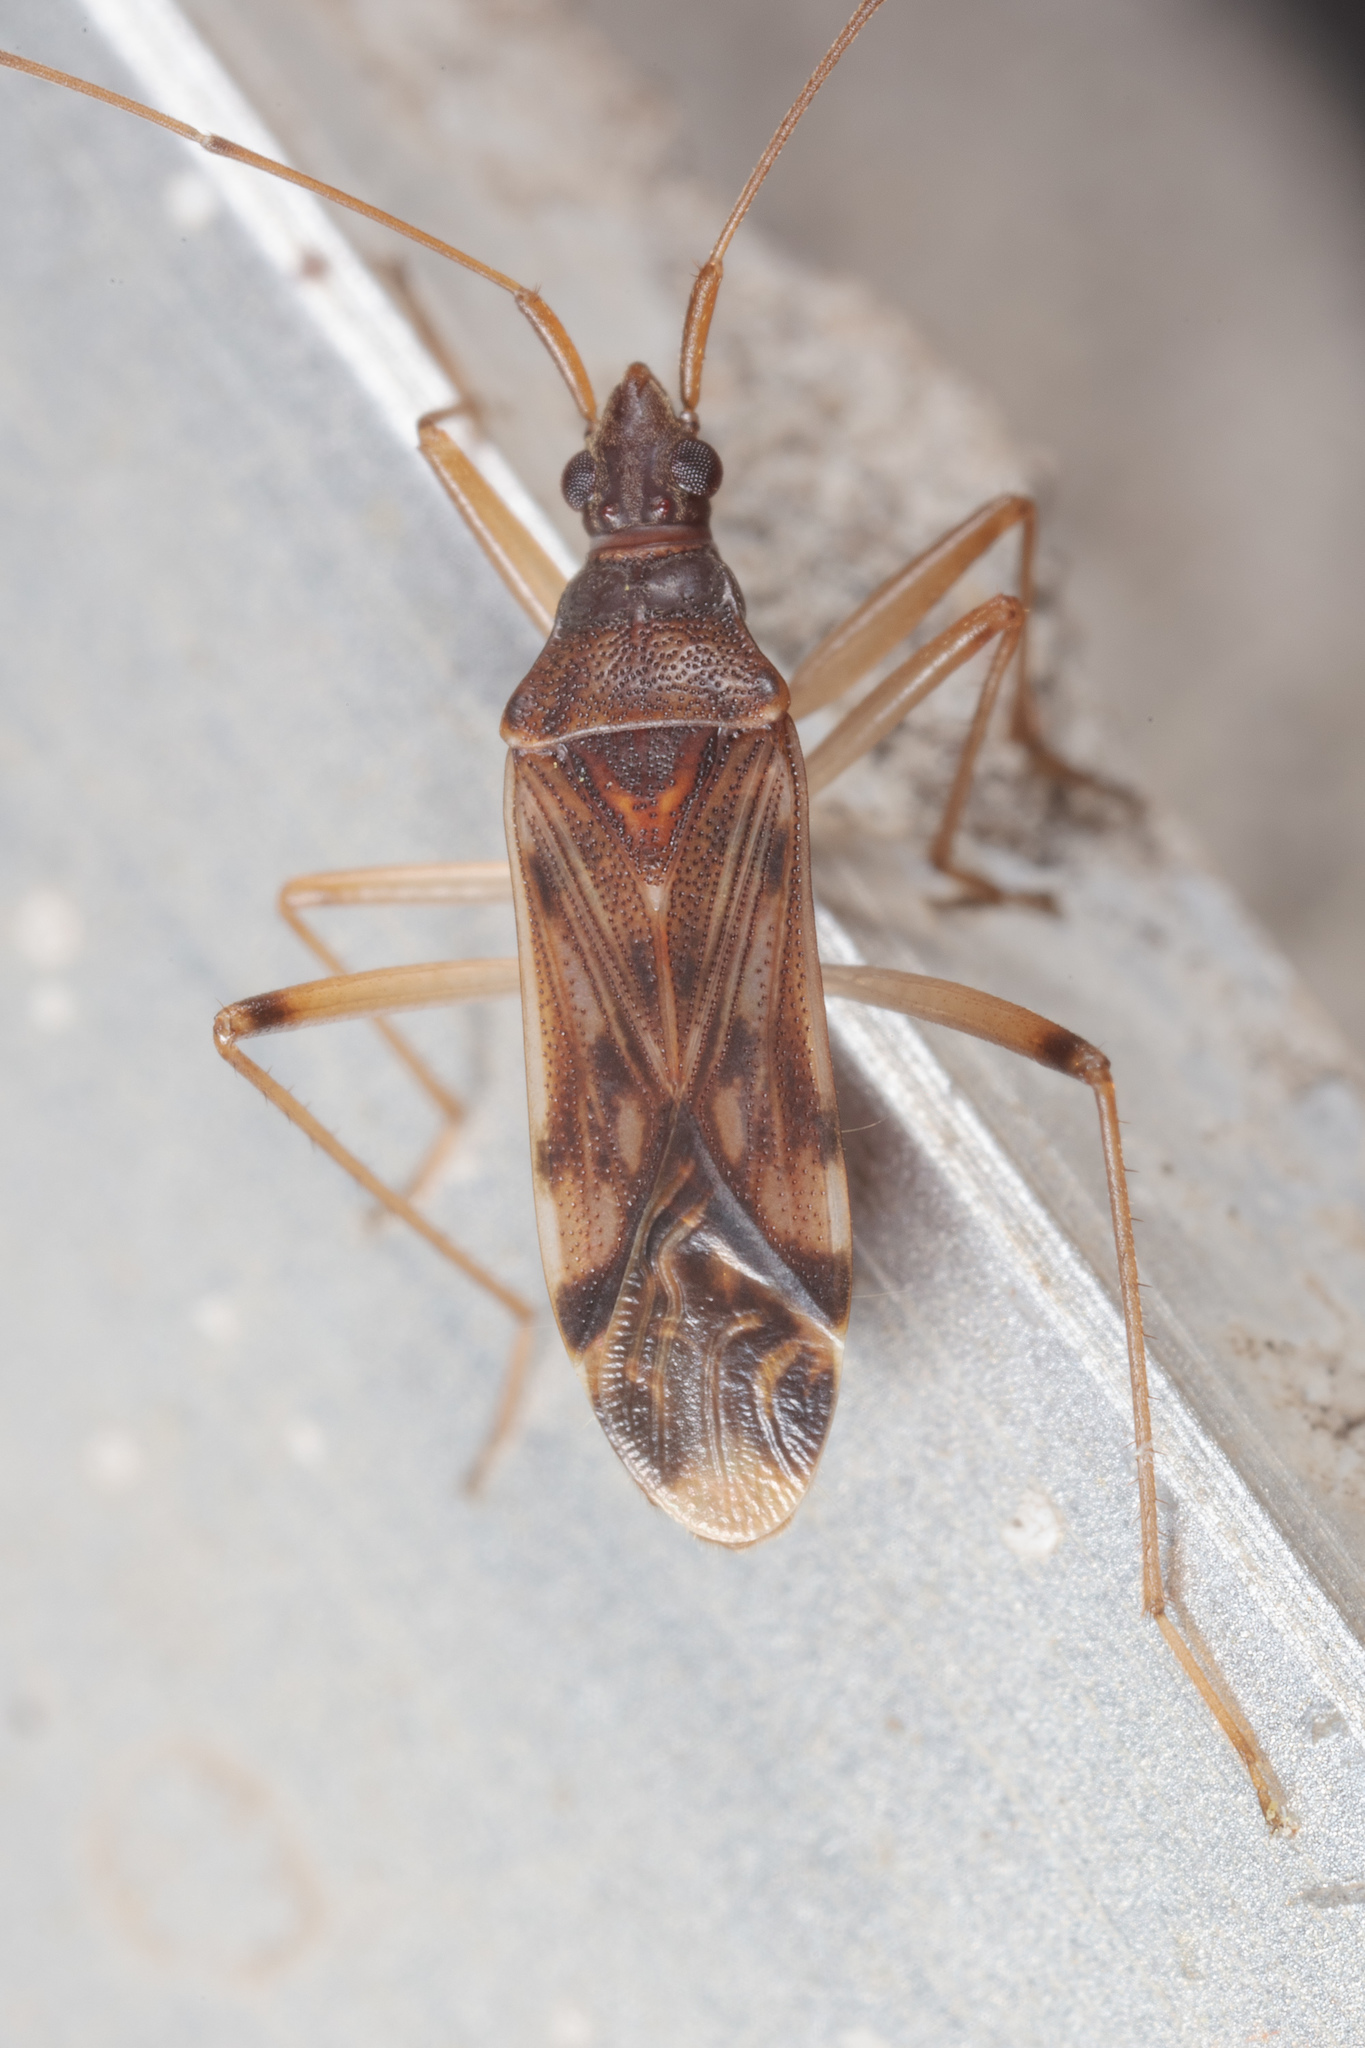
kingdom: Animalia
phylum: Arthropoda
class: Insecta
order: Hemiptera
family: Rhyparochromidae
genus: Ozophora
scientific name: Ozophora depicturata
